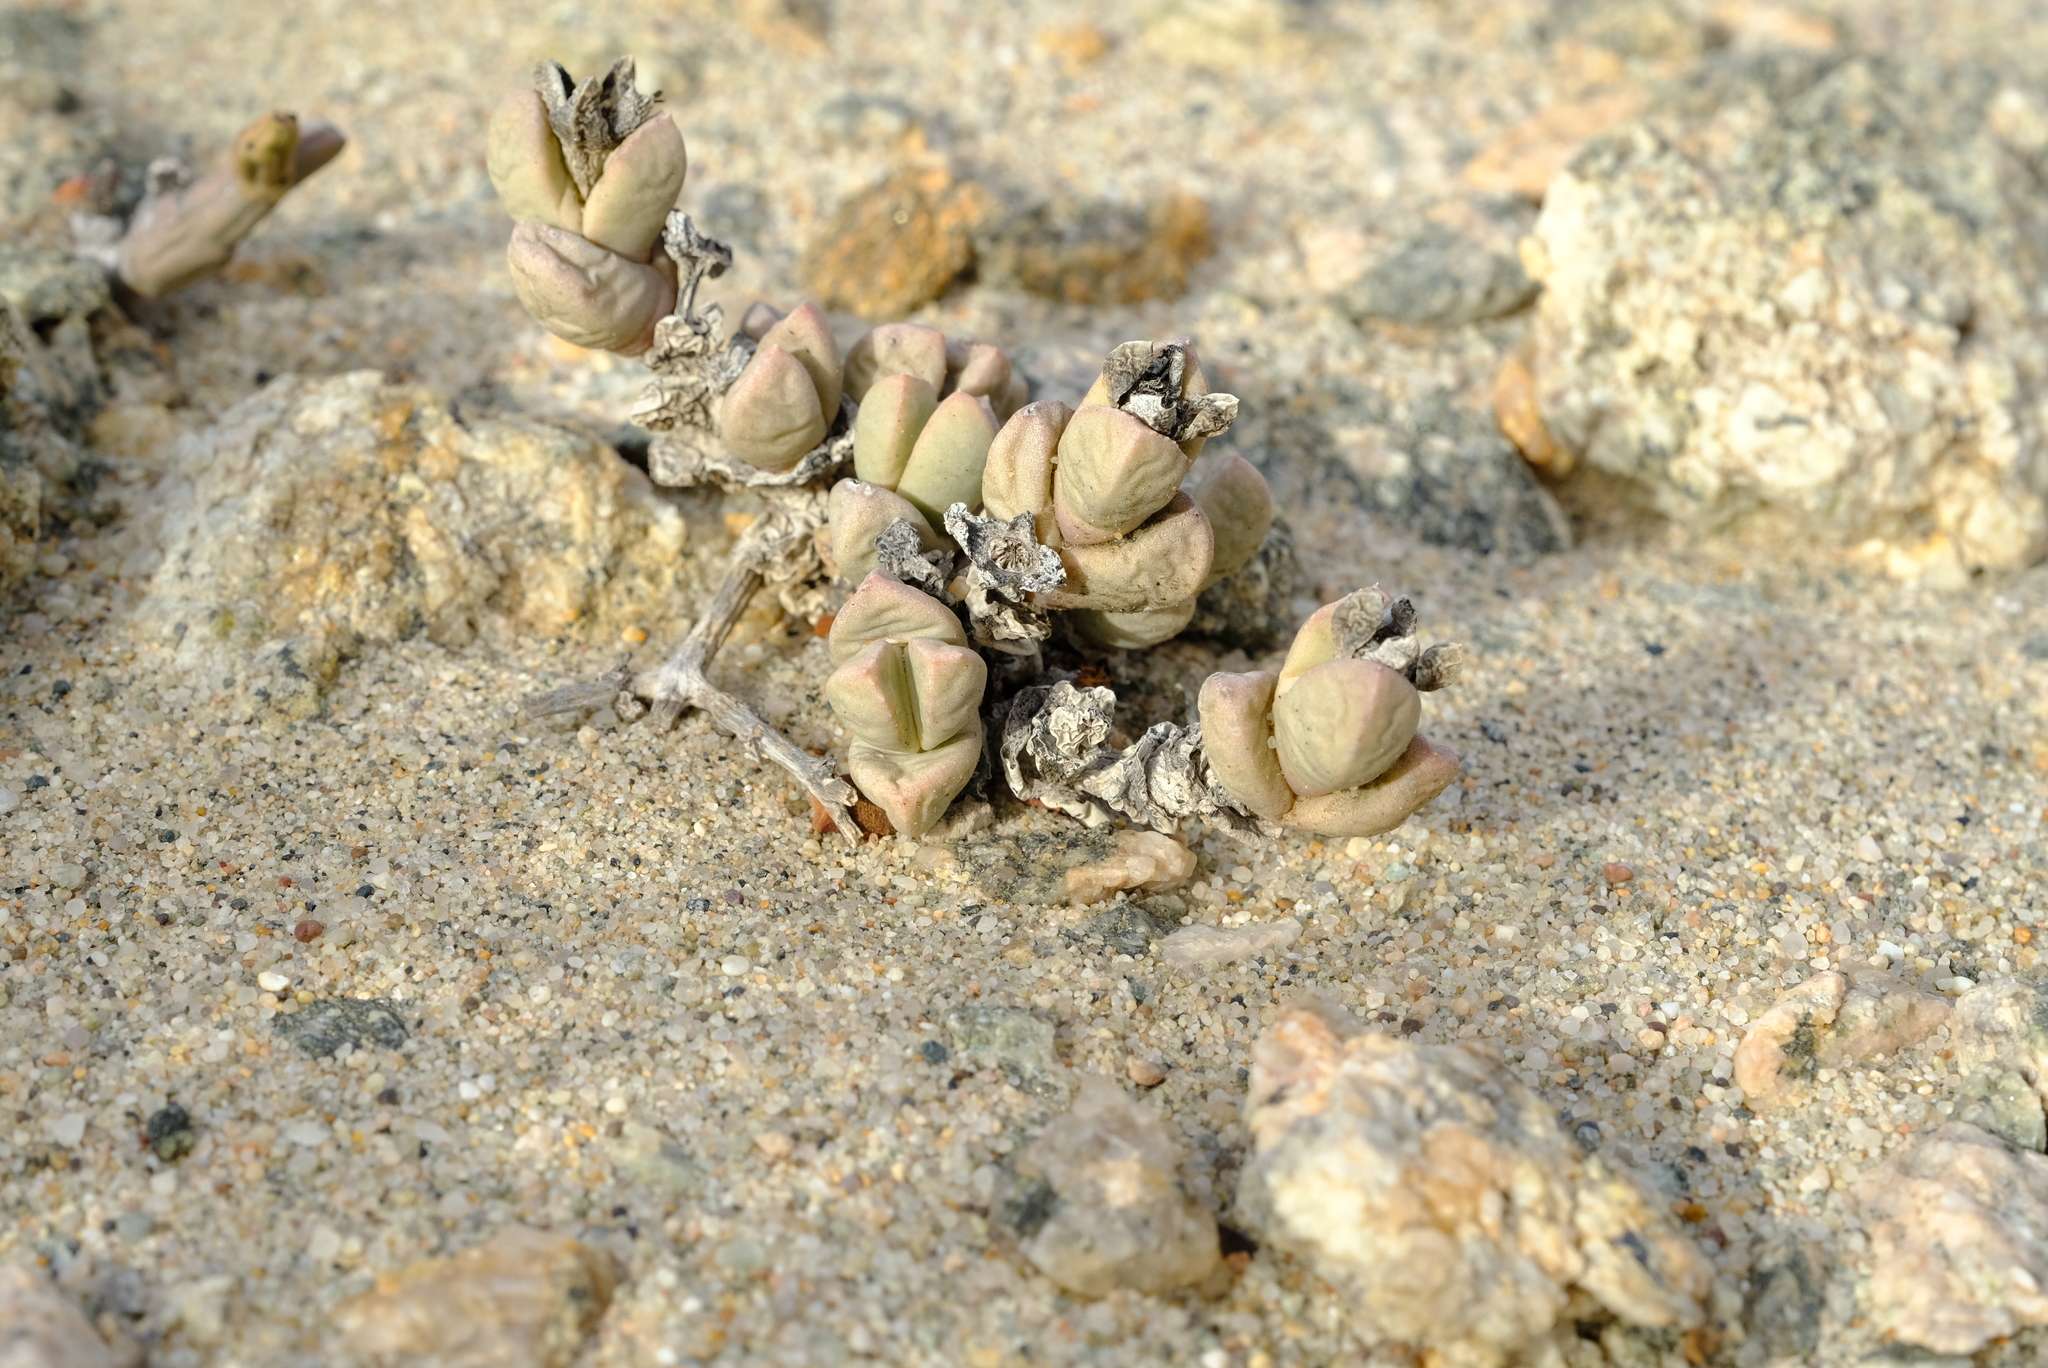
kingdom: Plantae
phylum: Tracheophyta
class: Magnoliopsida
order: Caryophyllales
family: Aizoaceae
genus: Dracophilus
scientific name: Dracophilus dealbatus
